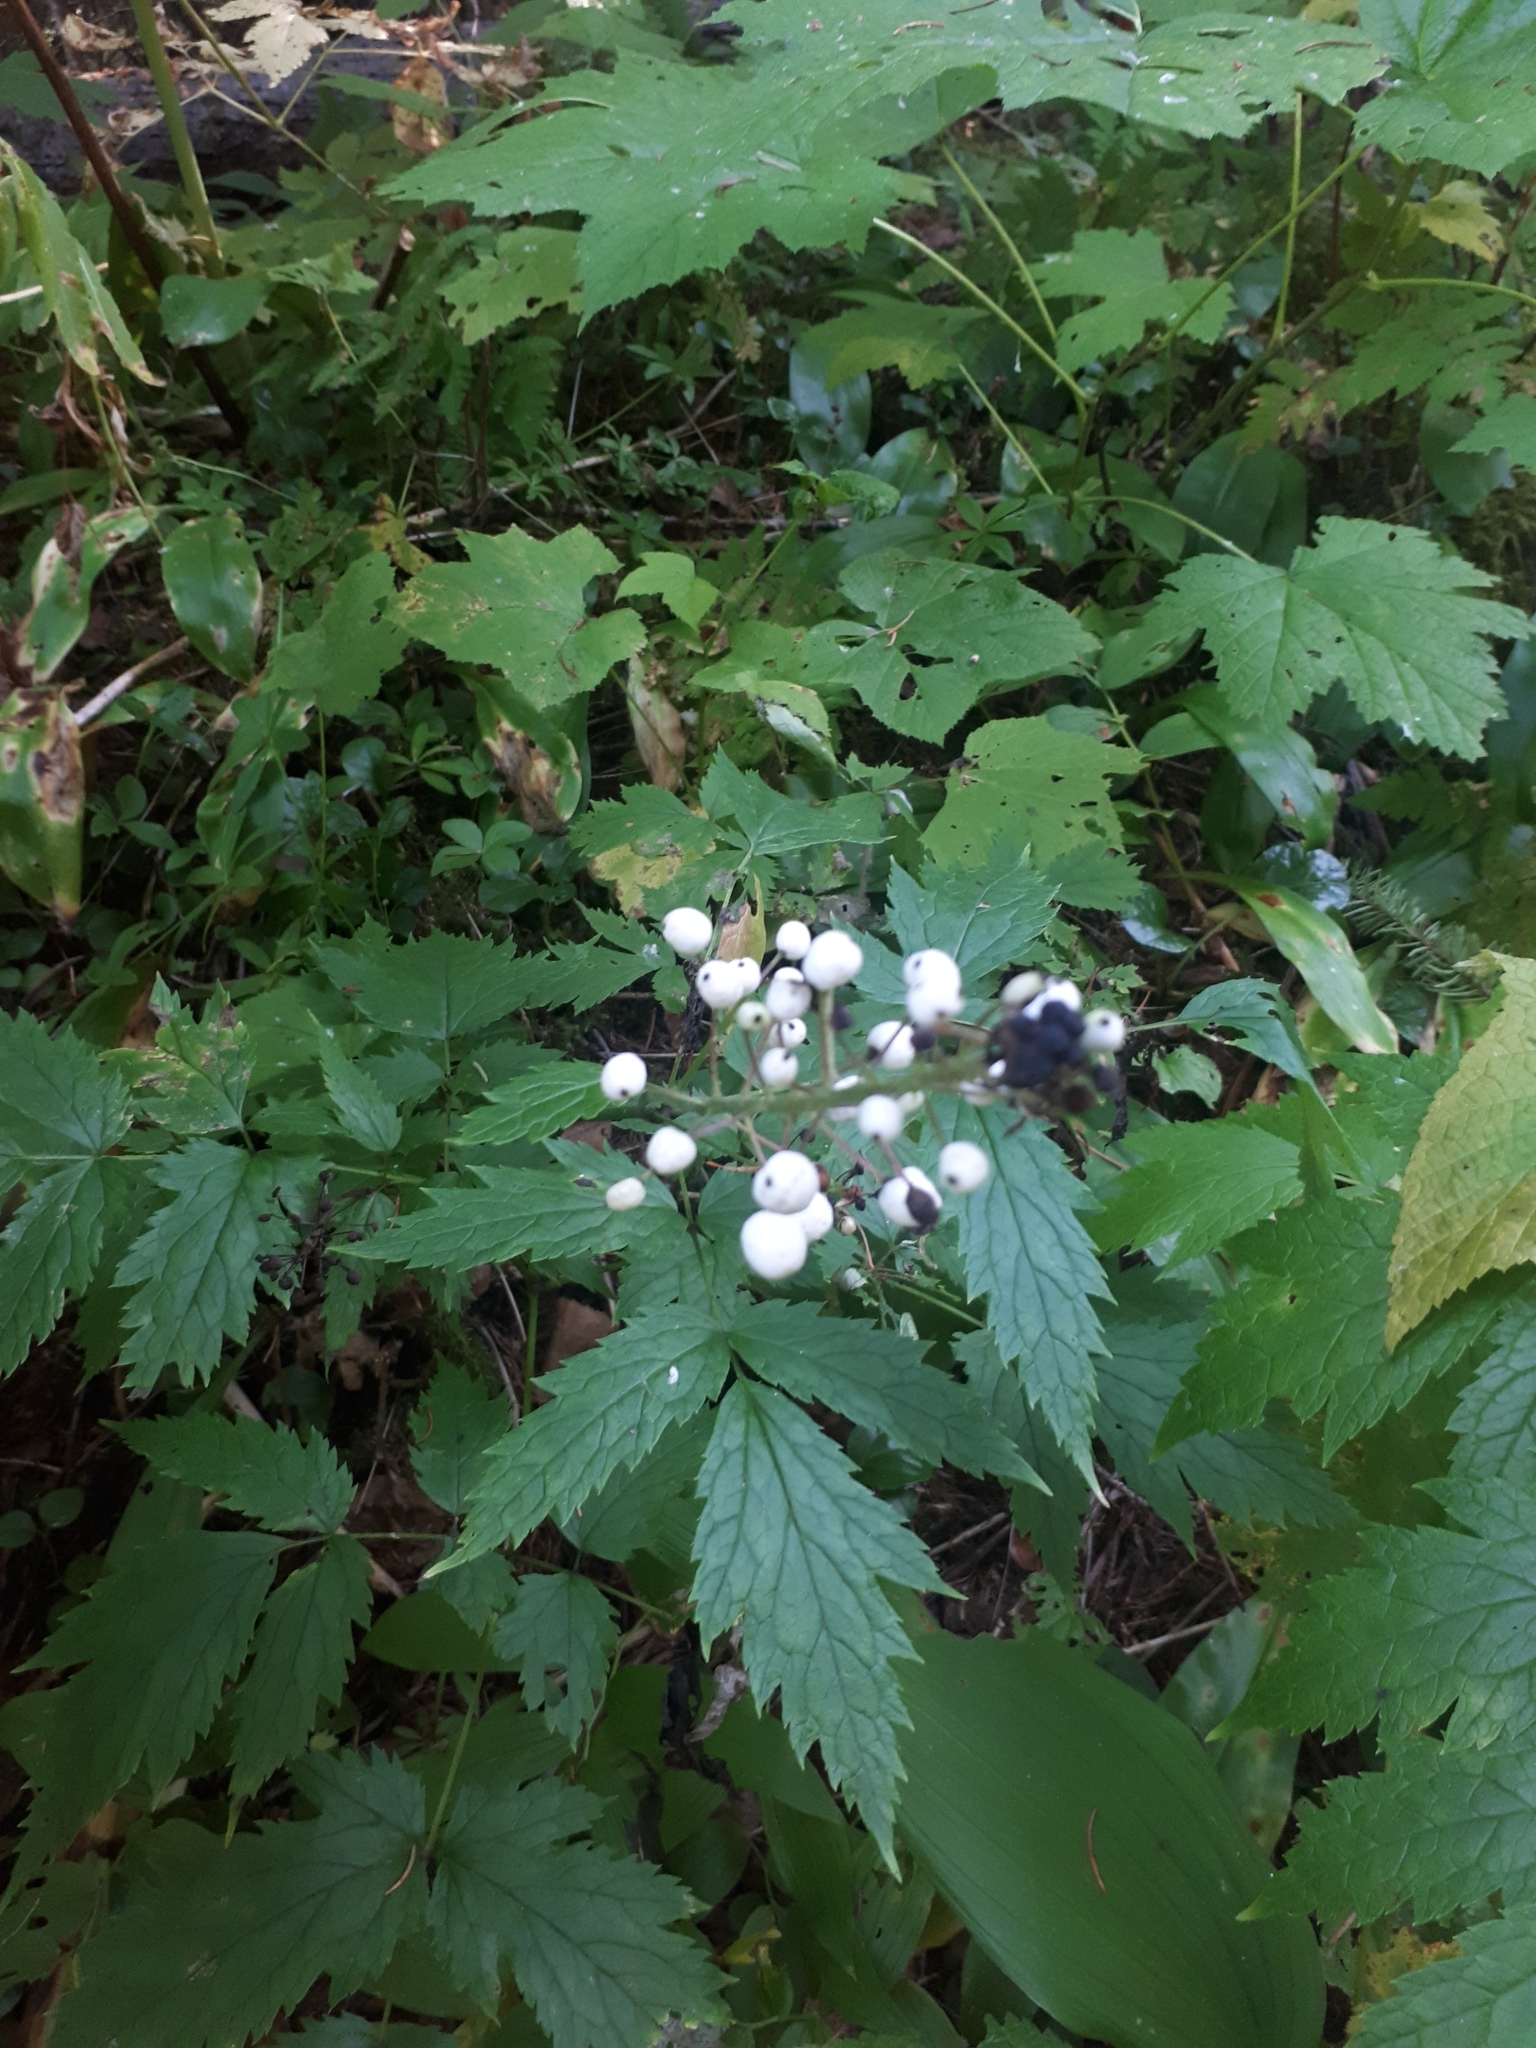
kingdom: Plantae
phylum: Tracheophyta
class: Magnoliopsida
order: Ranunculales
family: Ranunculaceae
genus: Actaea
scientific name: Actaea rubra
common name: Red baneberry
